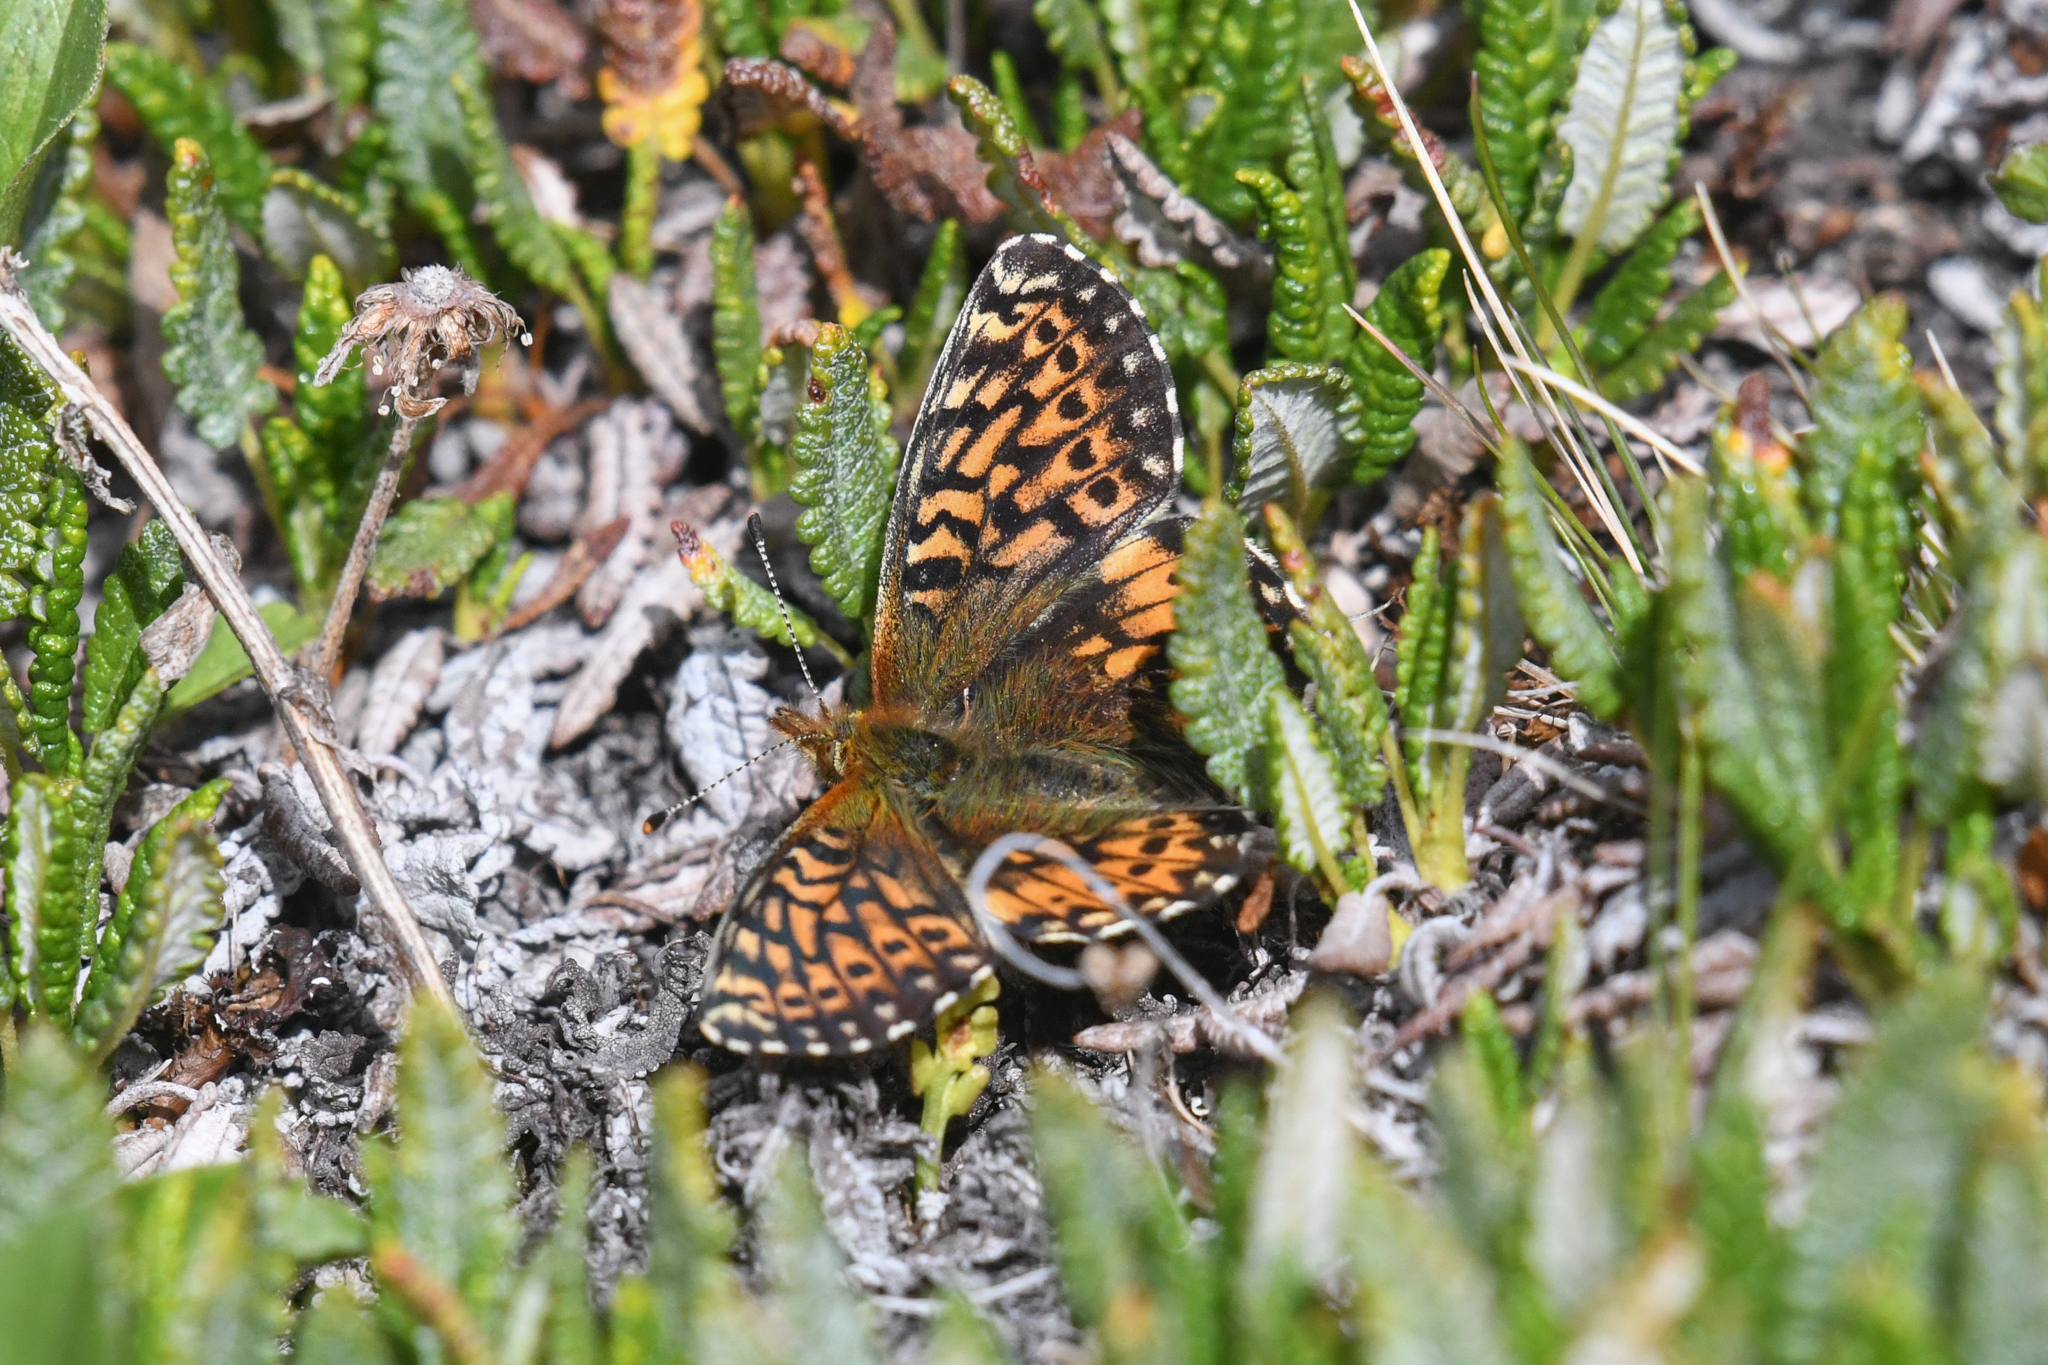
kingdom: Animalia
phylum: Arthropoda
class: Insecta
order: Lepidoptera
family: Nymphalidae
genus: Boloria
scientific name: Boloria chariclea
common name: Arctic fritillary
